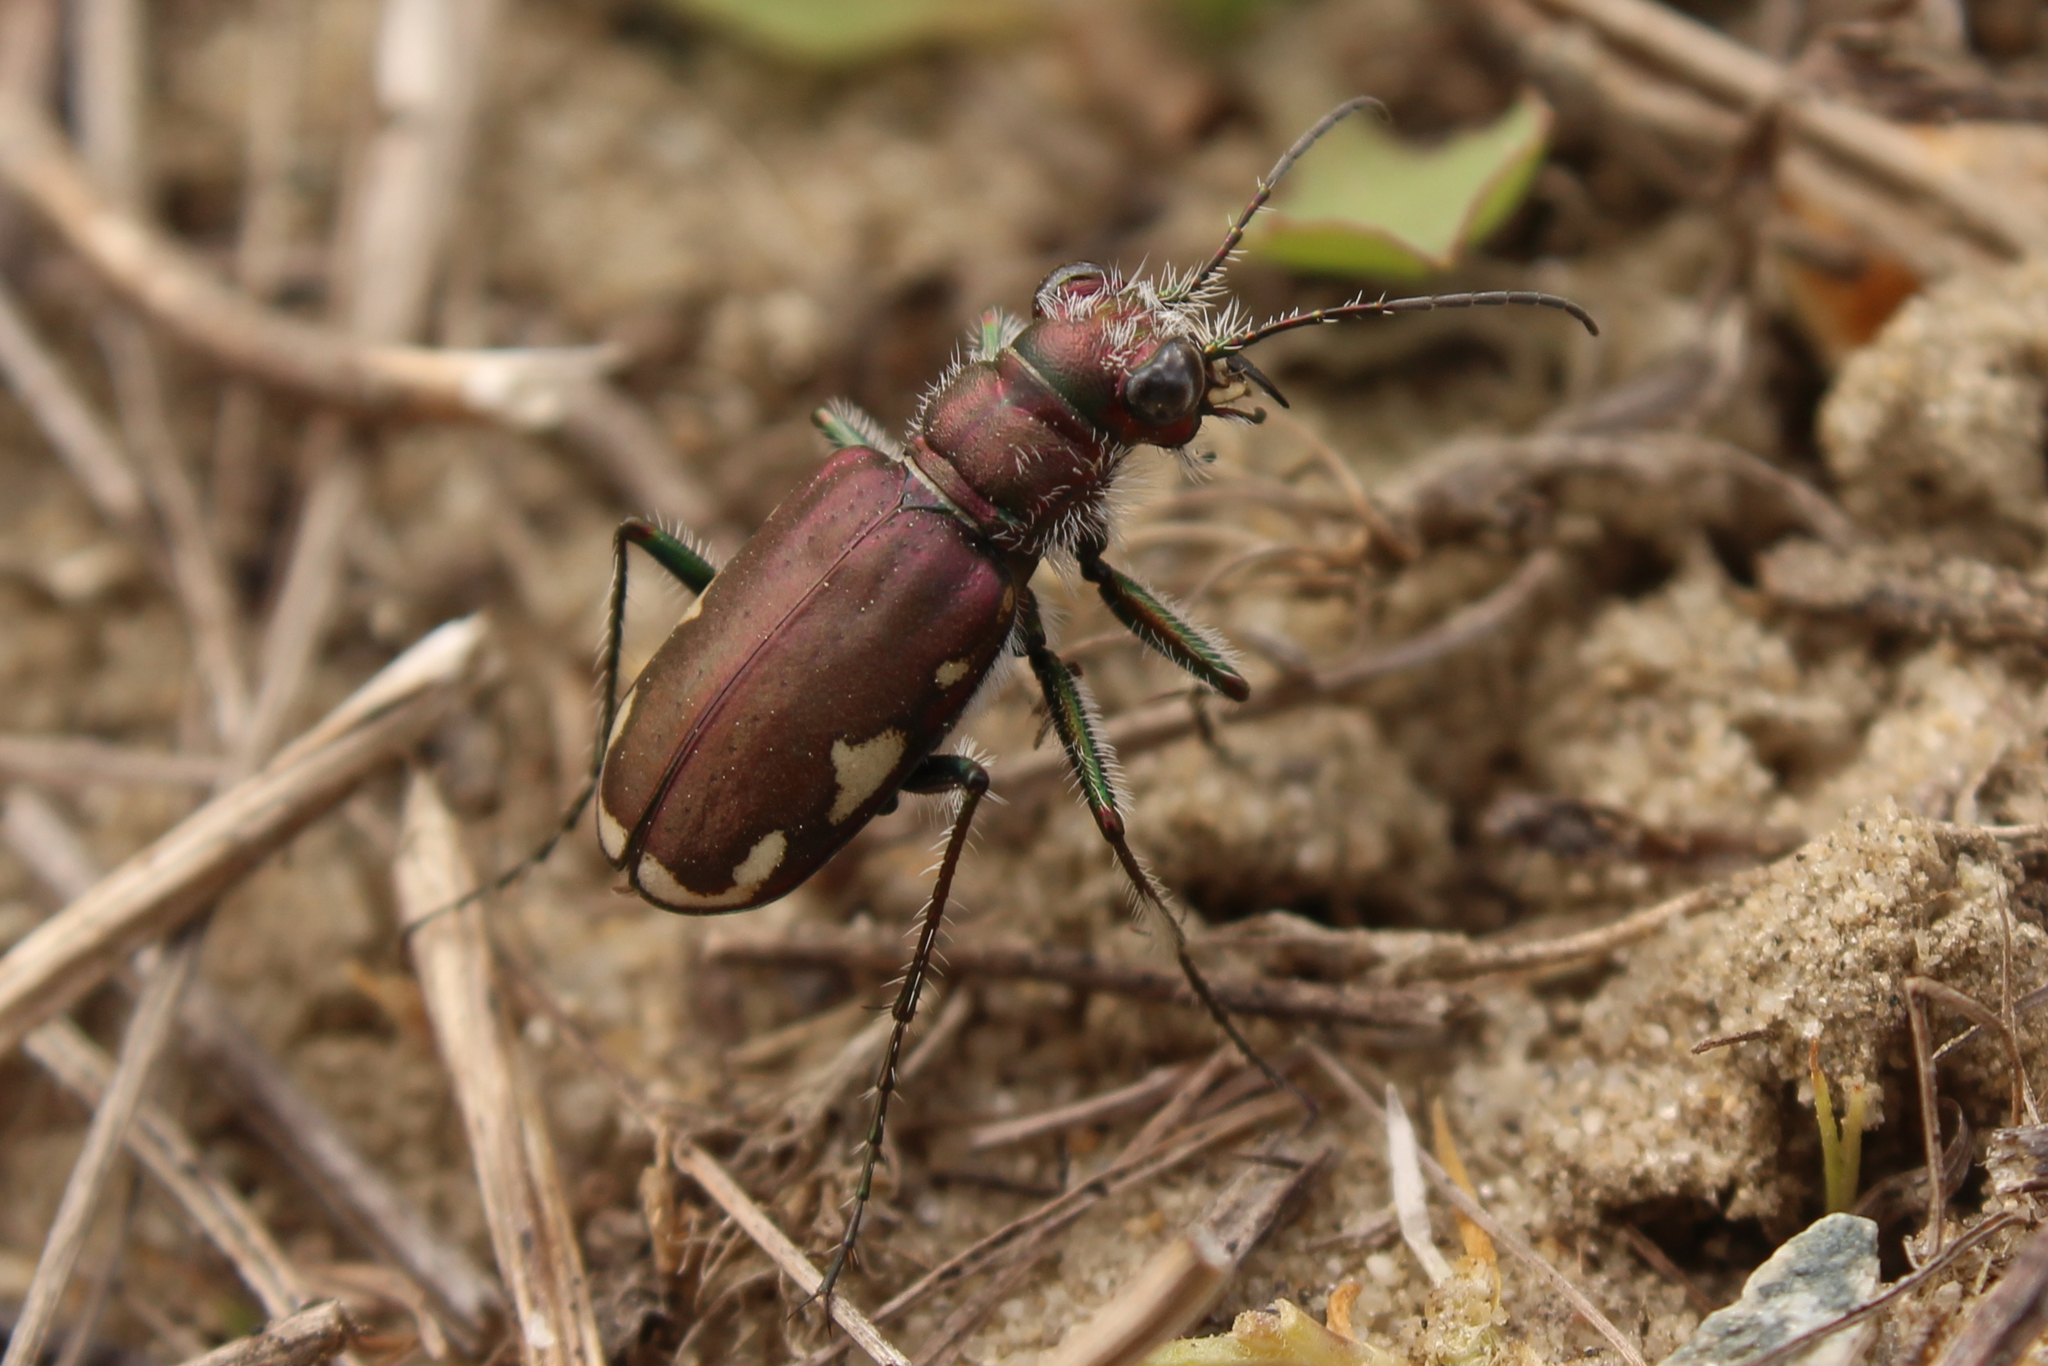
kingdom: Animalia
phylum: Arthropoda
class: Insecta
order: Coleoptera
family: Carabidae
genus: Cicindela
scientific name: Cicindela scutellaris
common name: Festive tiger beetle
